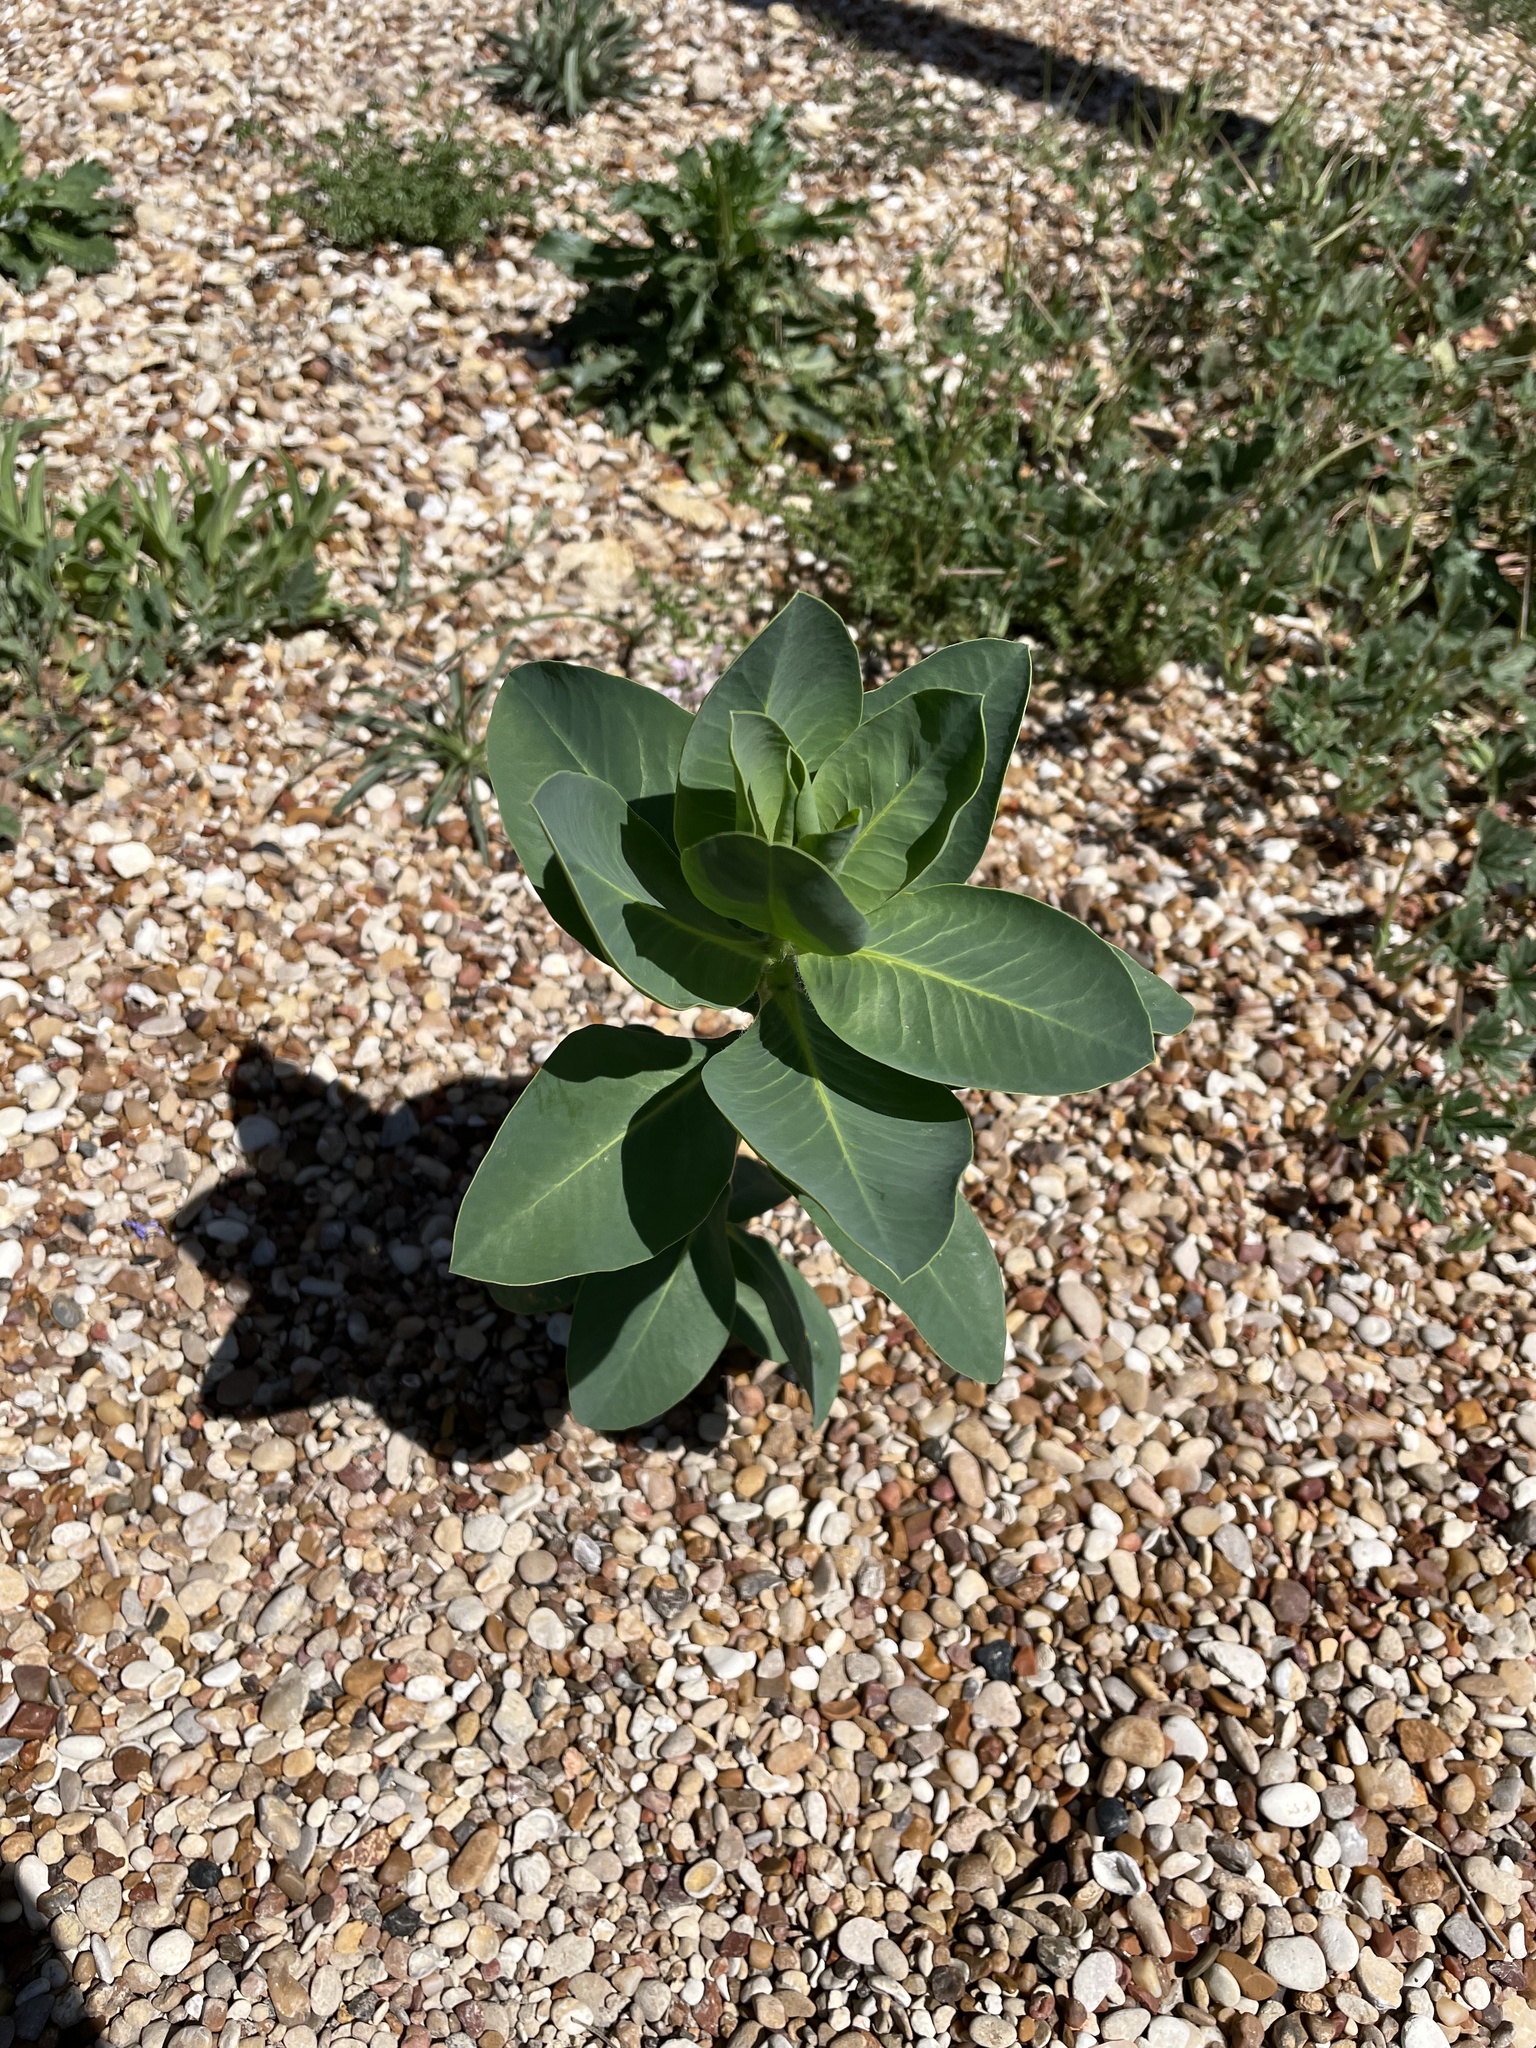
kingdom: Plantae
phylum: Tracheophyta
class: Magnoliopsida
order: Malpighiales
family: Euphorbiaceae
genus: Euphorbia
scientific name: Euphorbia marginata
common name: Ghostweed
